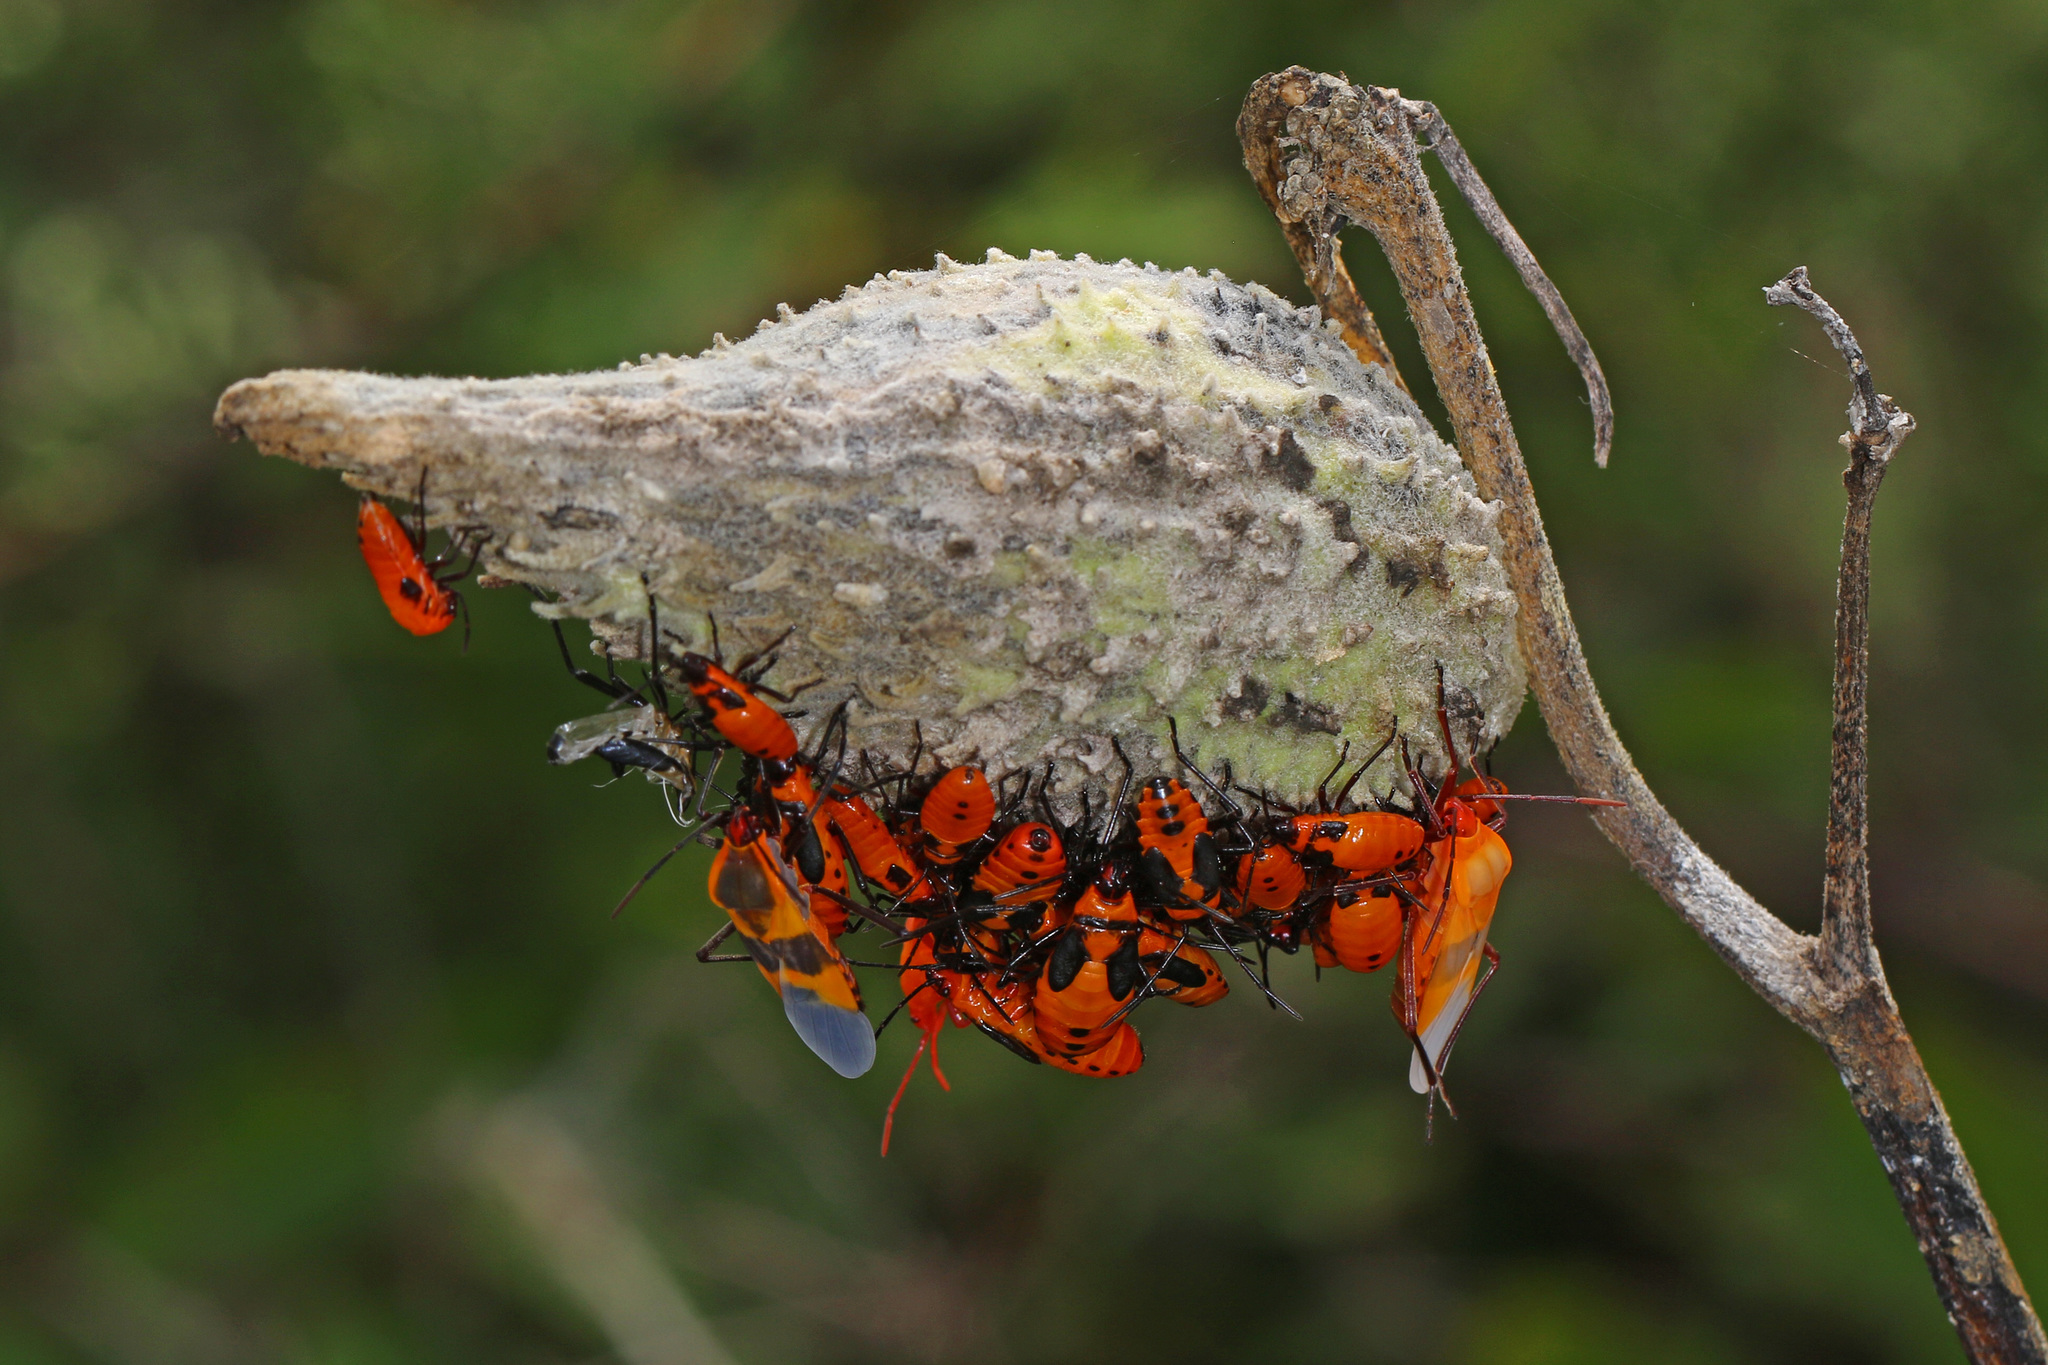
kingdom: Animalia
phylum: Arthropoda
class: Insecta
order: Hemiptera
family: Lygaeidae
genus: Oncopeltus
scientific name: Oncopeltus fasciatus
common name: Large milkweed bug
